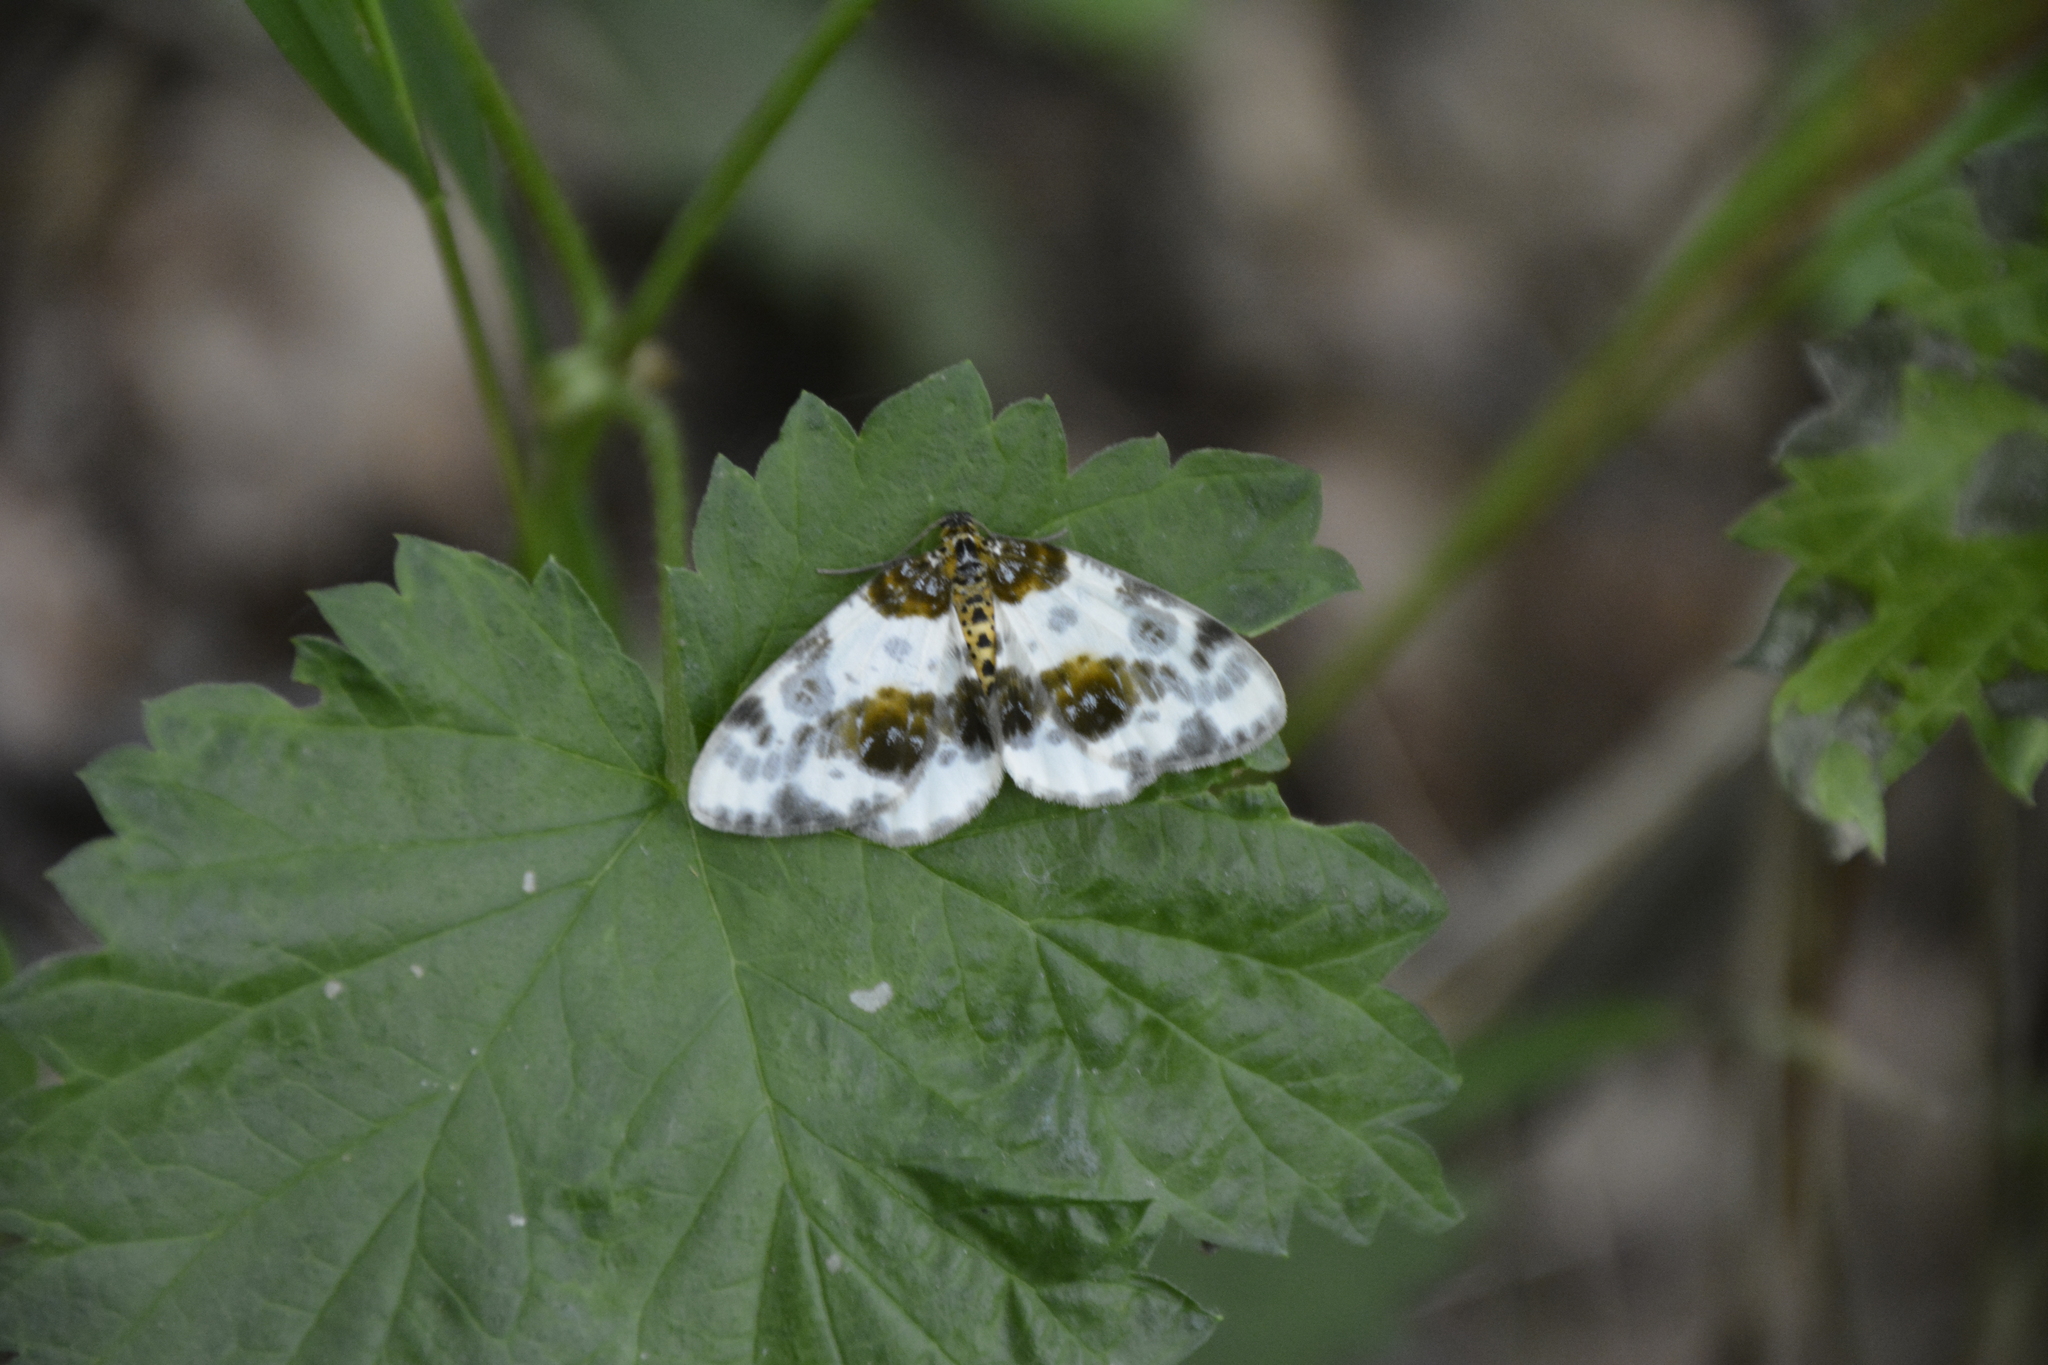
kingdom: Animalia
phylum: Arthropoda
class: Insecta
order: Lepidoptera
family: Geometridae
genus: Abraxas
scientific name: Abraxas sylvata
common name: Clouded magpie
